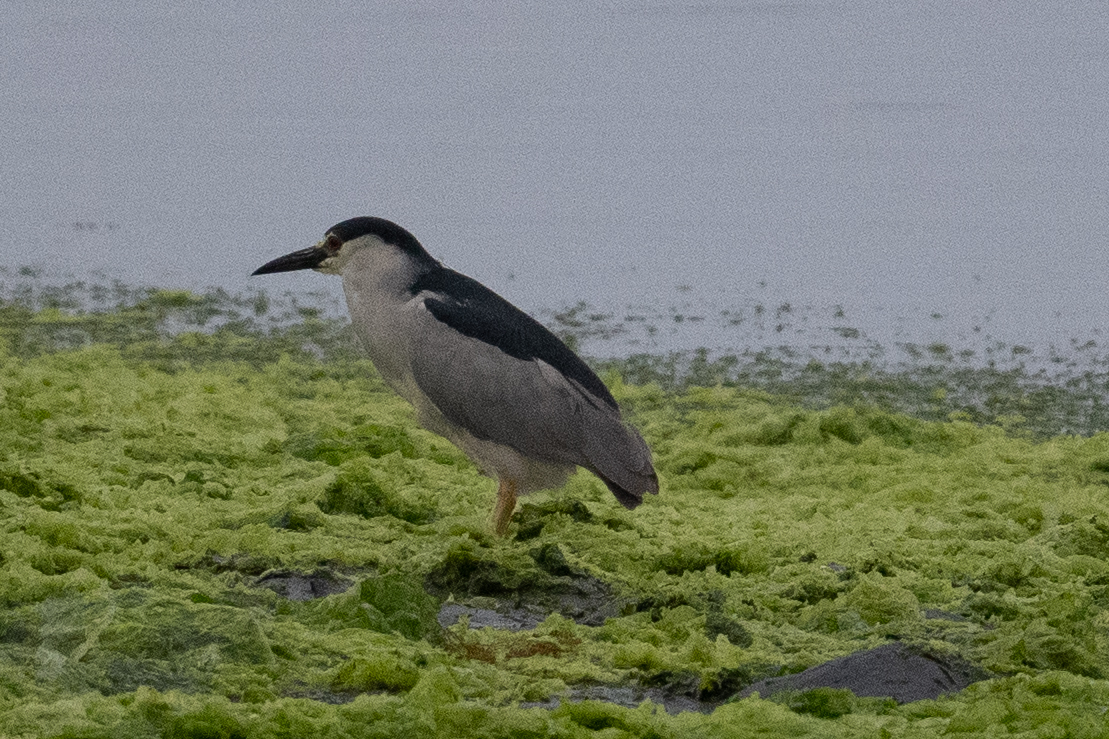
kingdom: Animalia
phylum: Chordata
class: Aves
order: Pelecaniformes
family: Ardeidae
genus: Nycticorax
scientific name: Nycticorax nycticorax
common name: Black-crowned night heron
